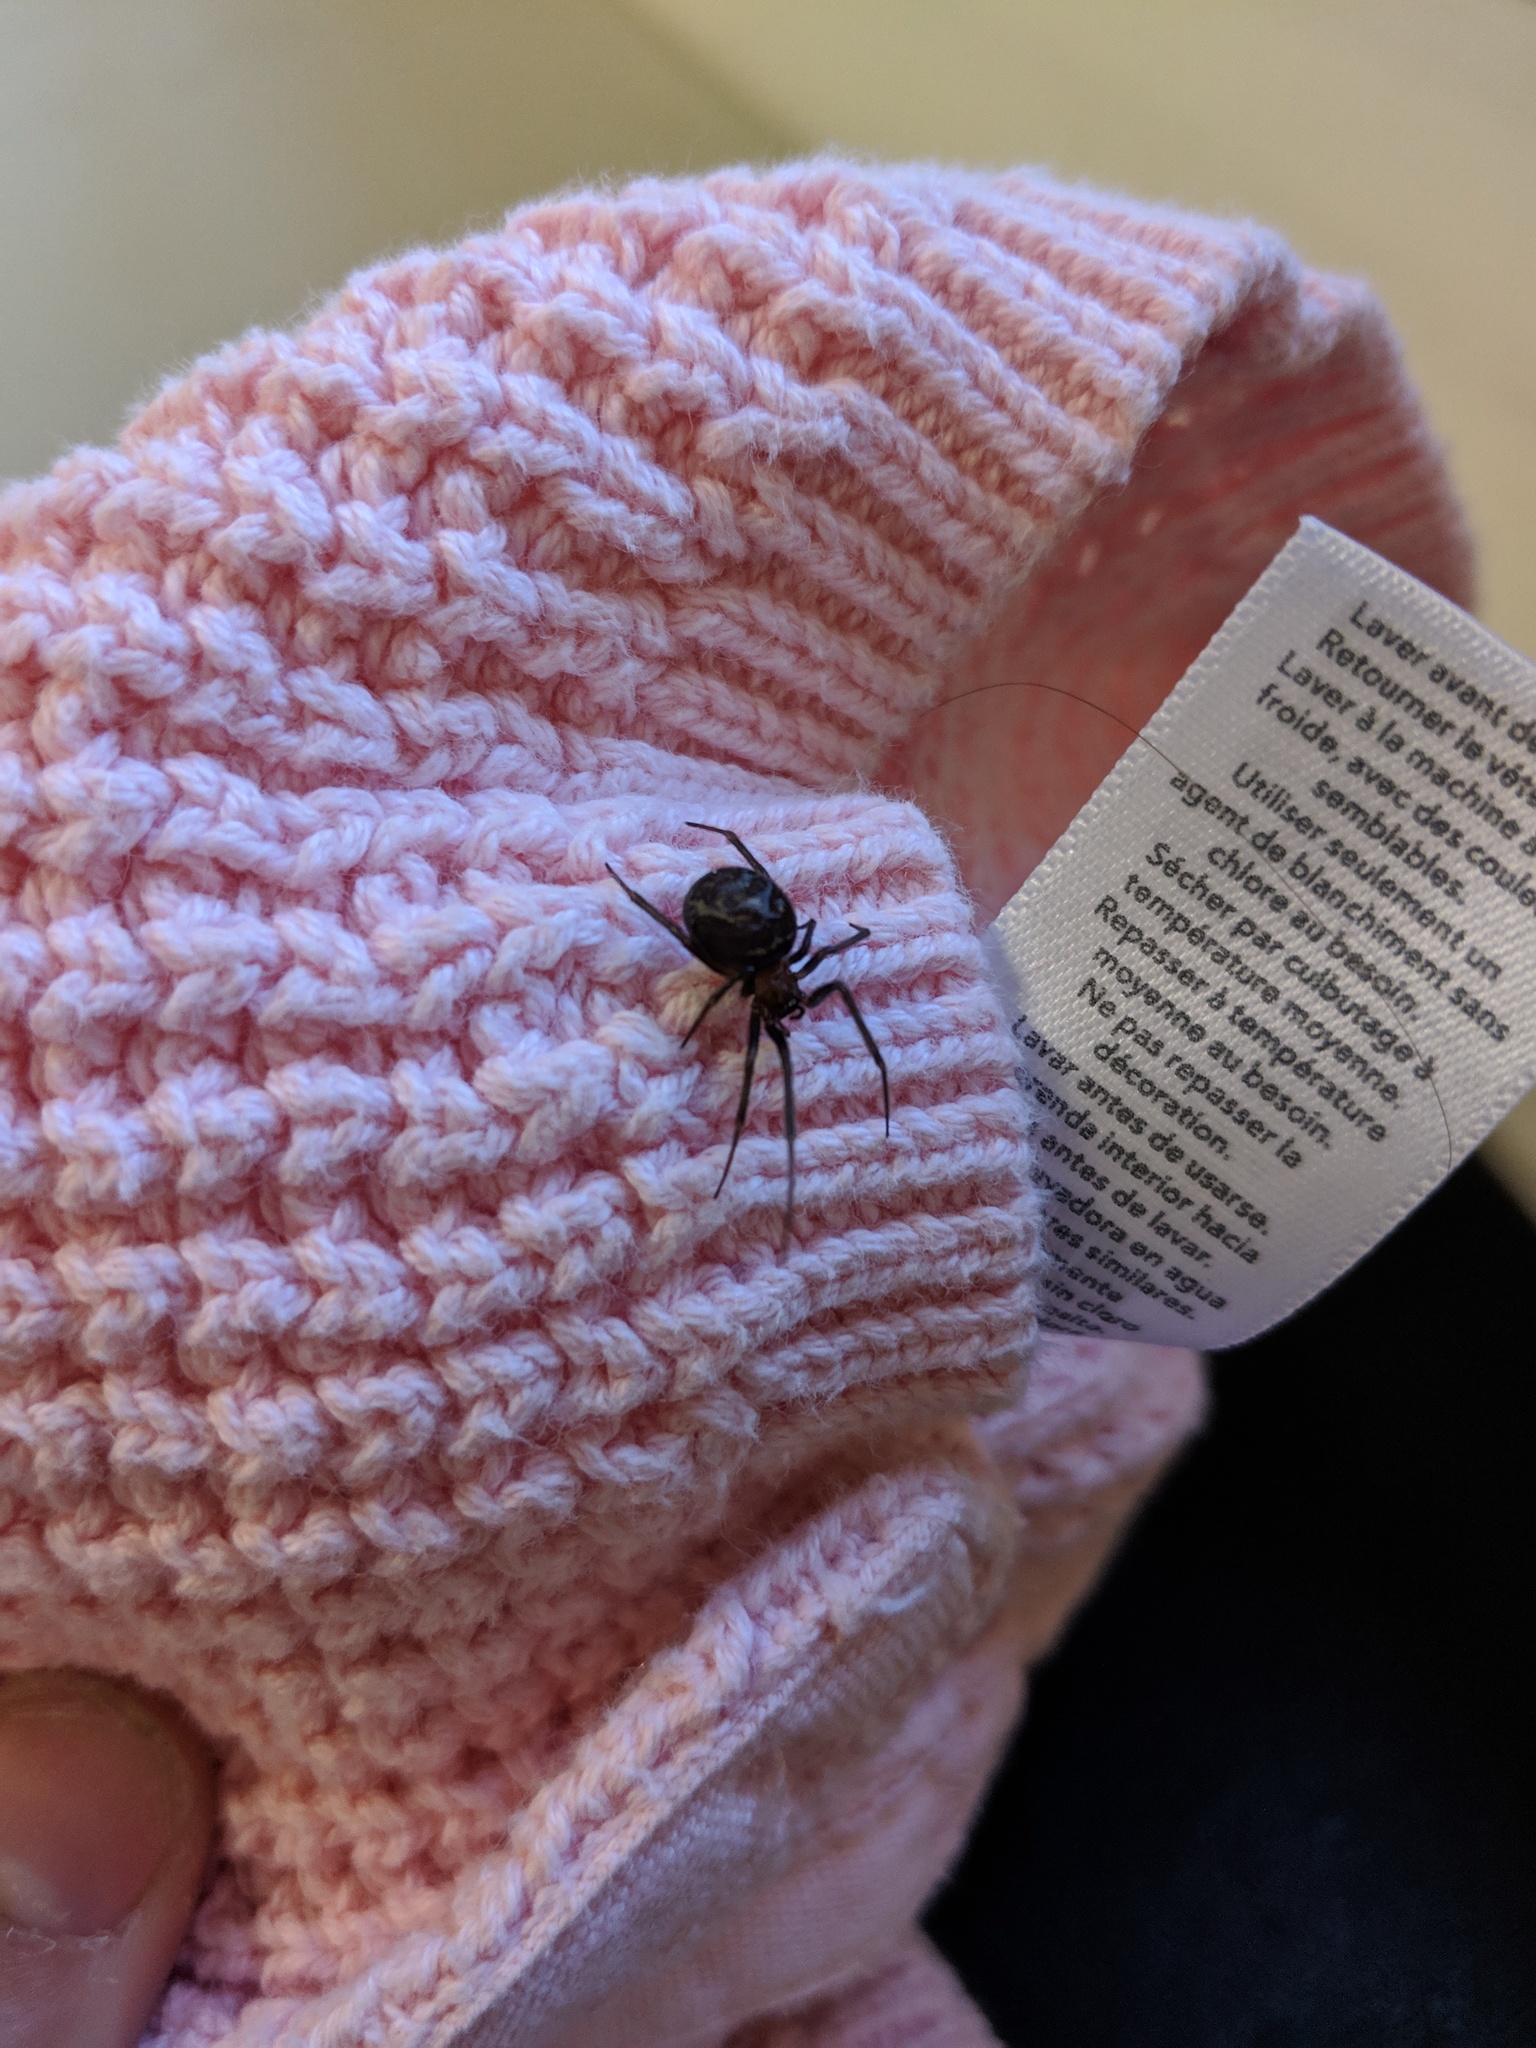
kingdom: Animalia
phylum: Arthropoda
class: Arachnida
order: Araneae
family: Theridiidae
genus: Steatoda
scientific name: Steatoda grossa
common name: False black widow
